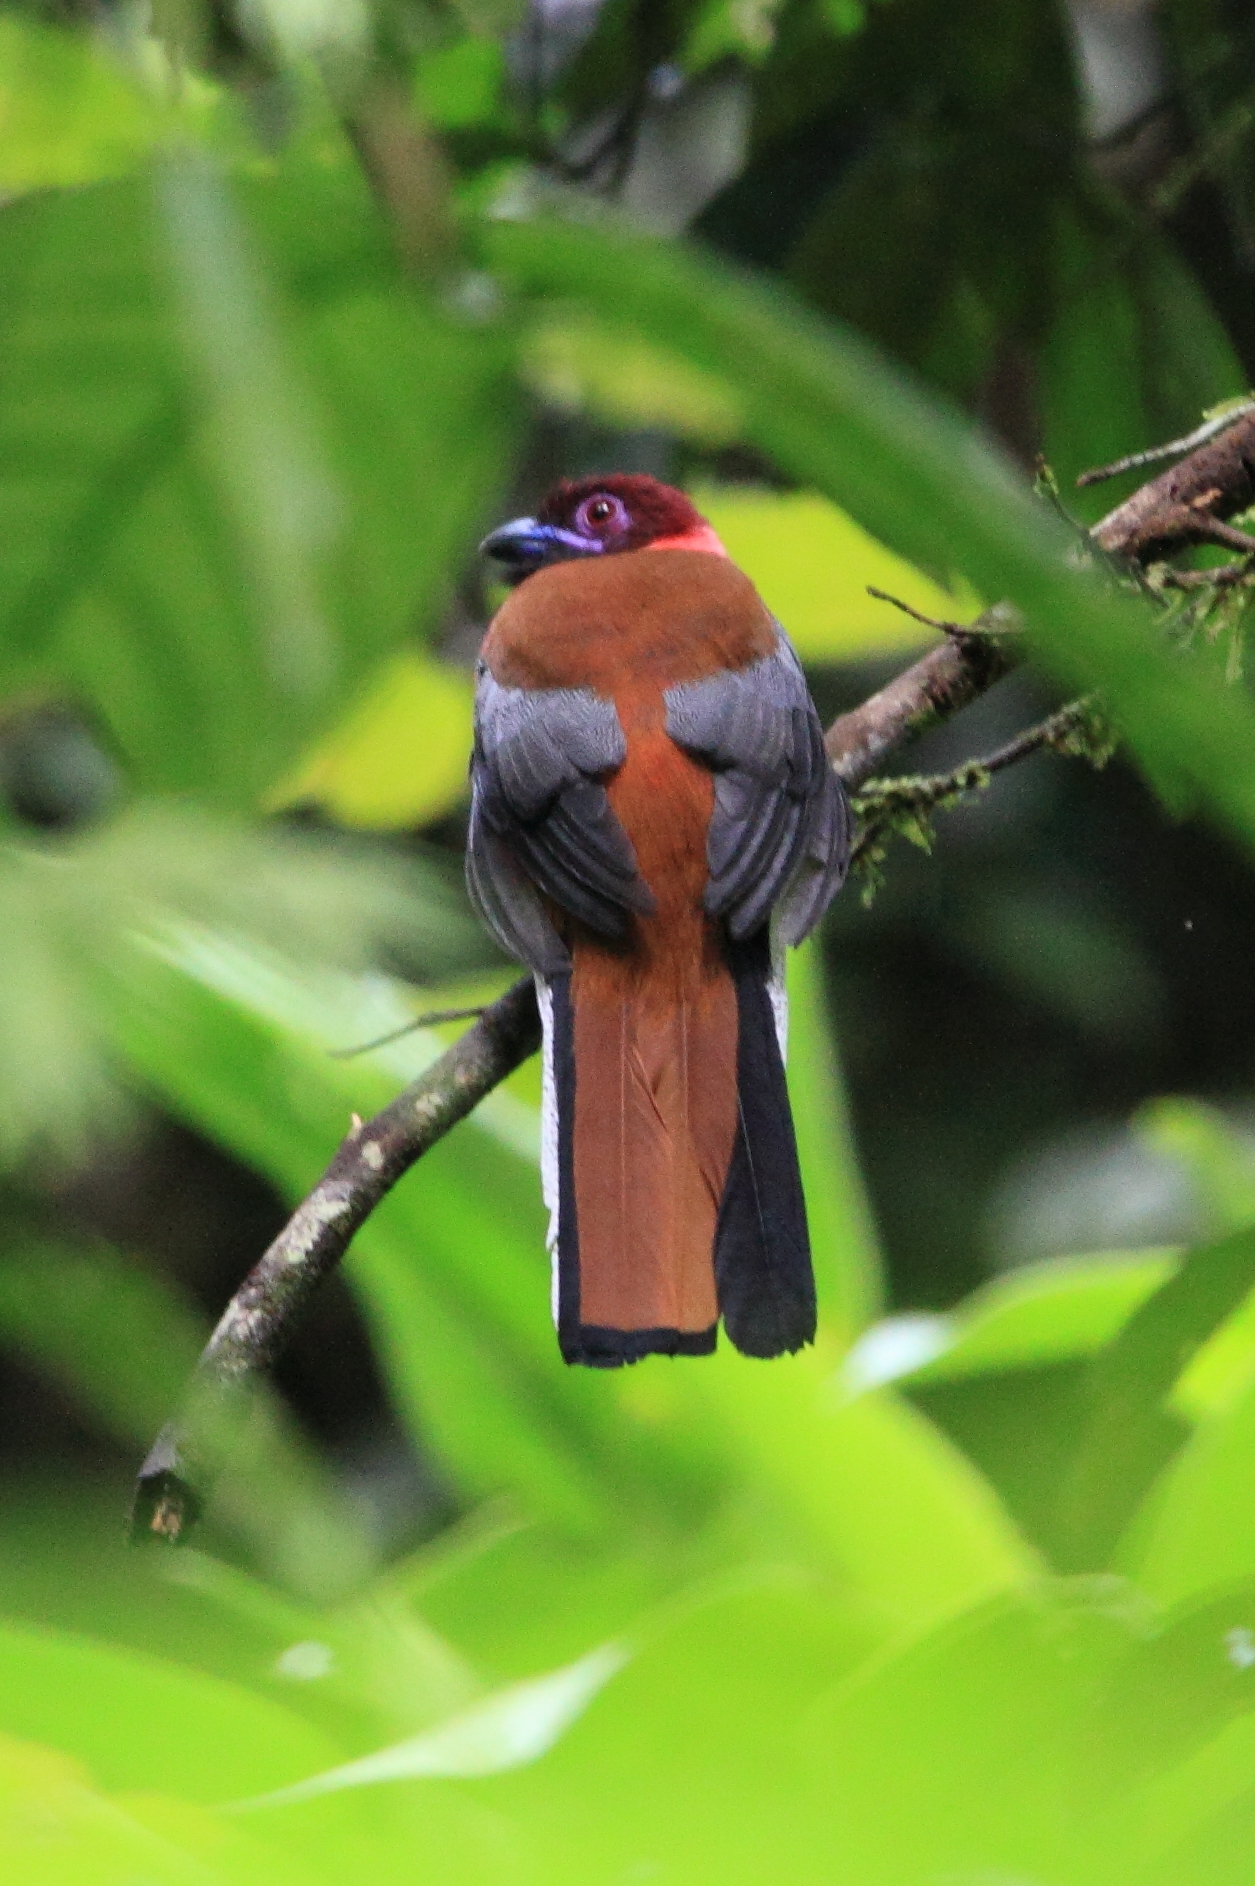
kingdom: Animalia
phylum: Chordata
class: Aves
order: Trogoniformes
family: Trogonidae
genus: Harpactes
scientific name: Harpactes diardii
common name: Diard's trogon
